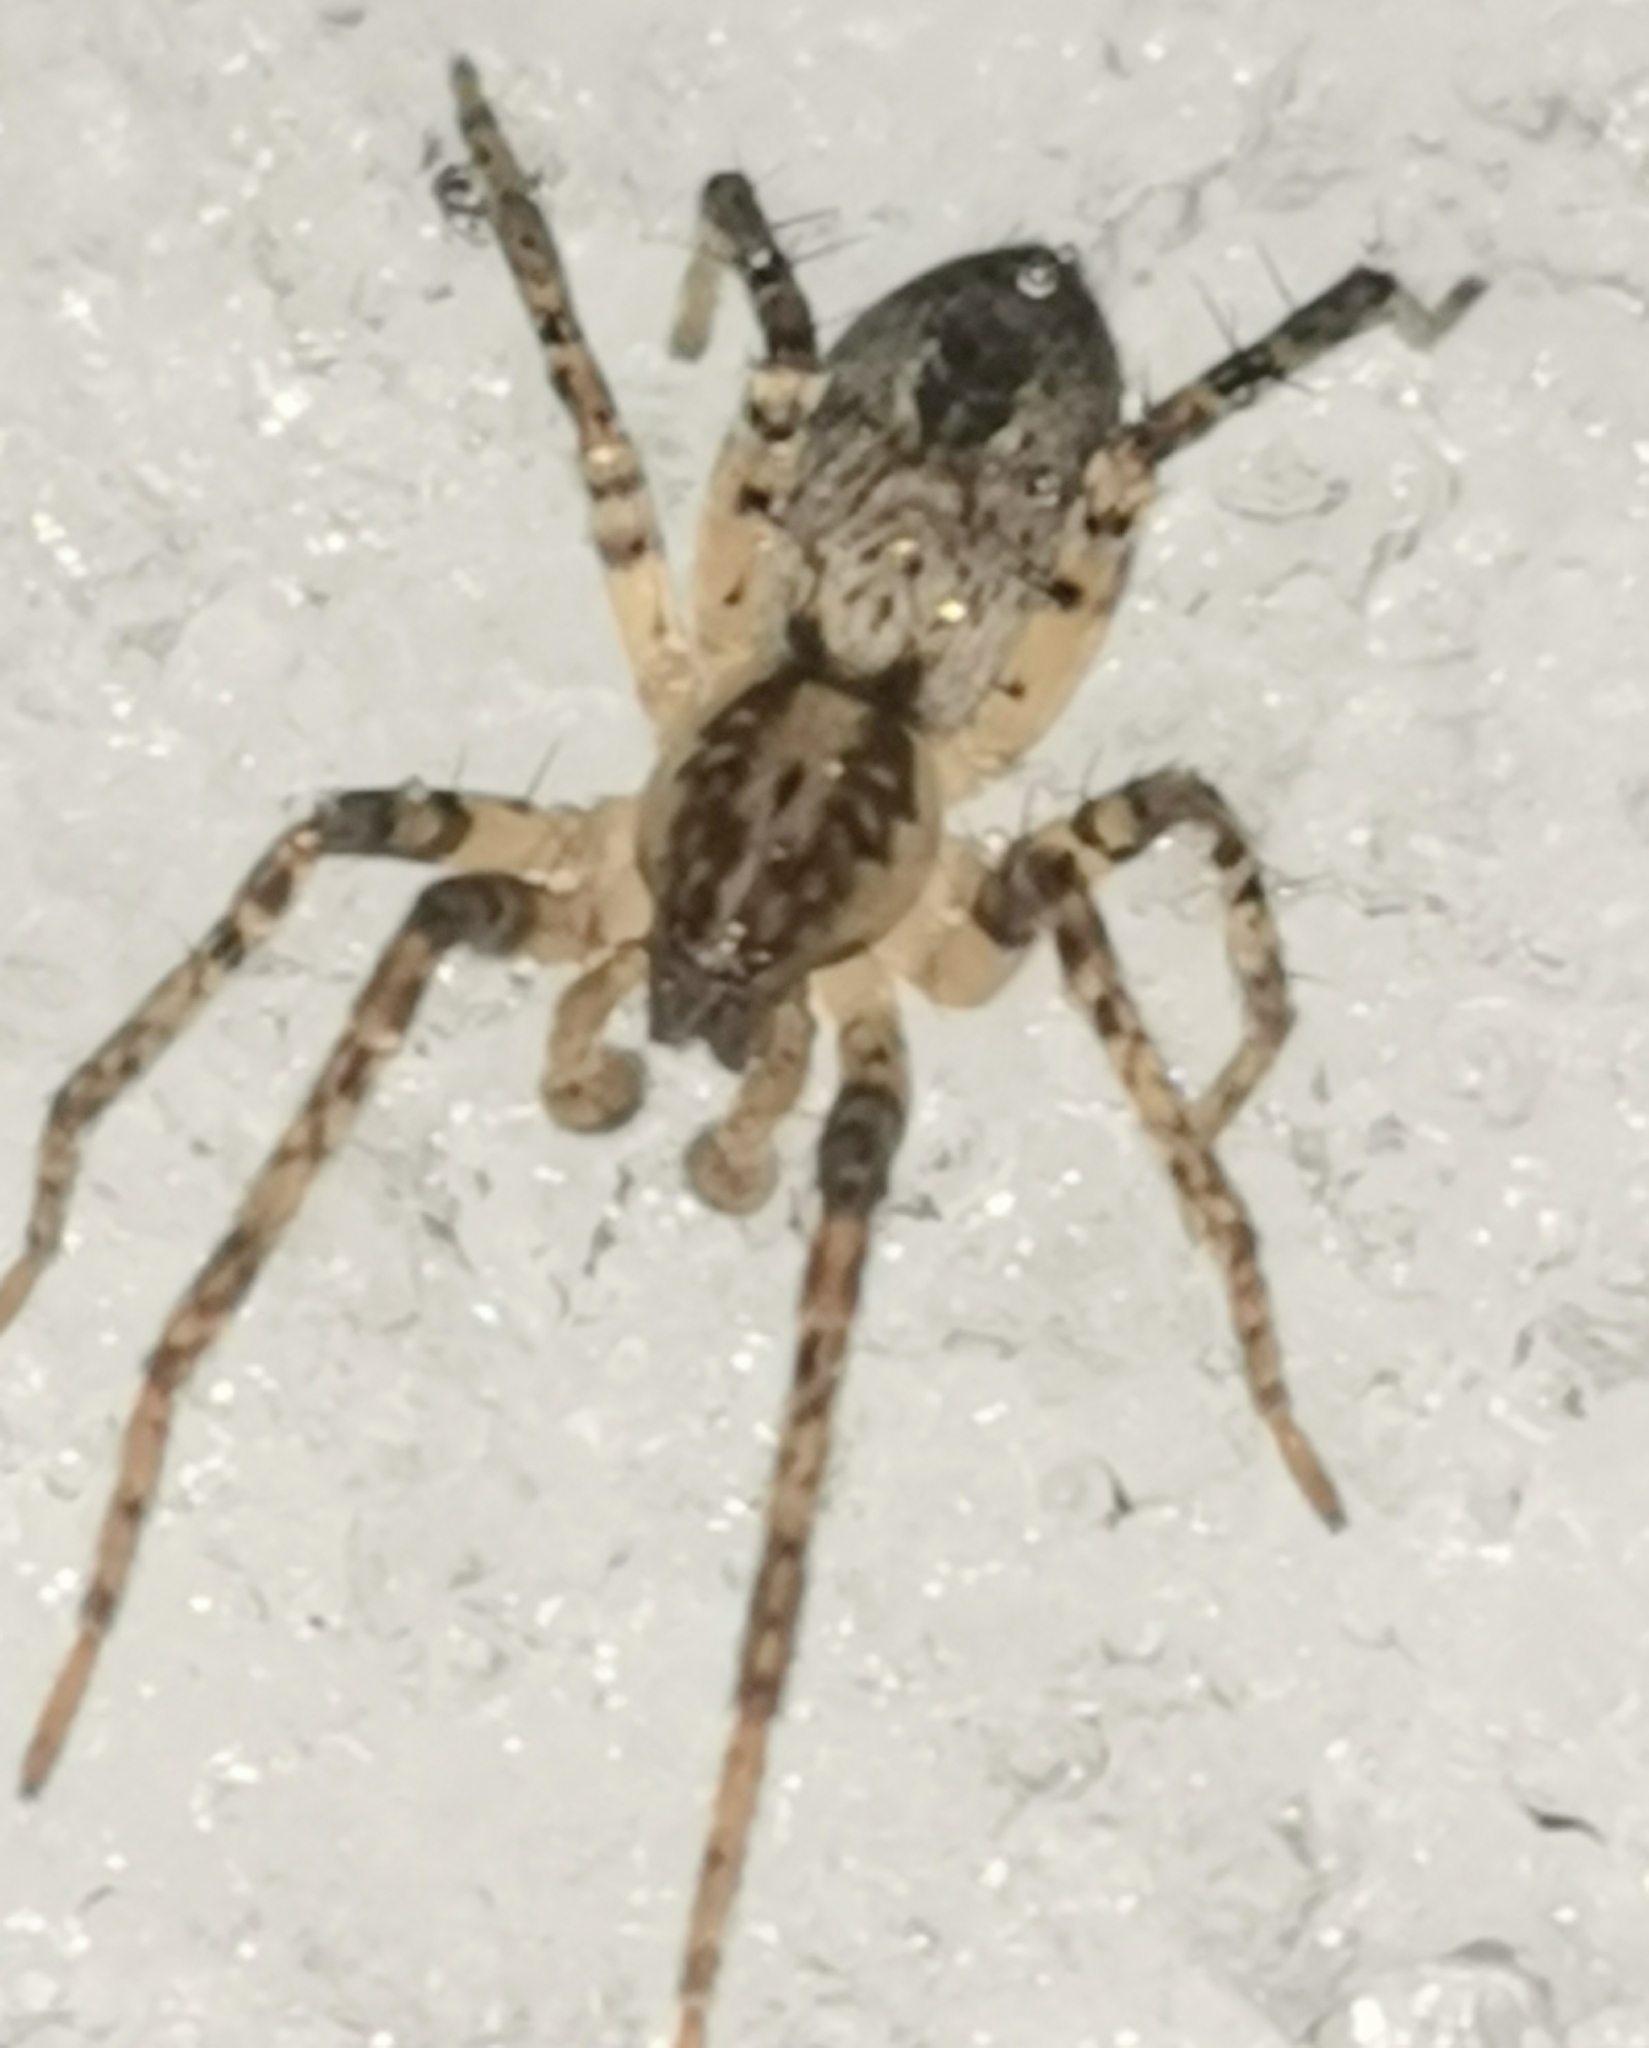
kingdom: Animalia
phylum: Arthropoda
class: Arachnida
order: Araneae
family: Anyphaenidae
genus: Anyphaena
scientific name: Anyphaena accentuata
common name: Buzzing spider
